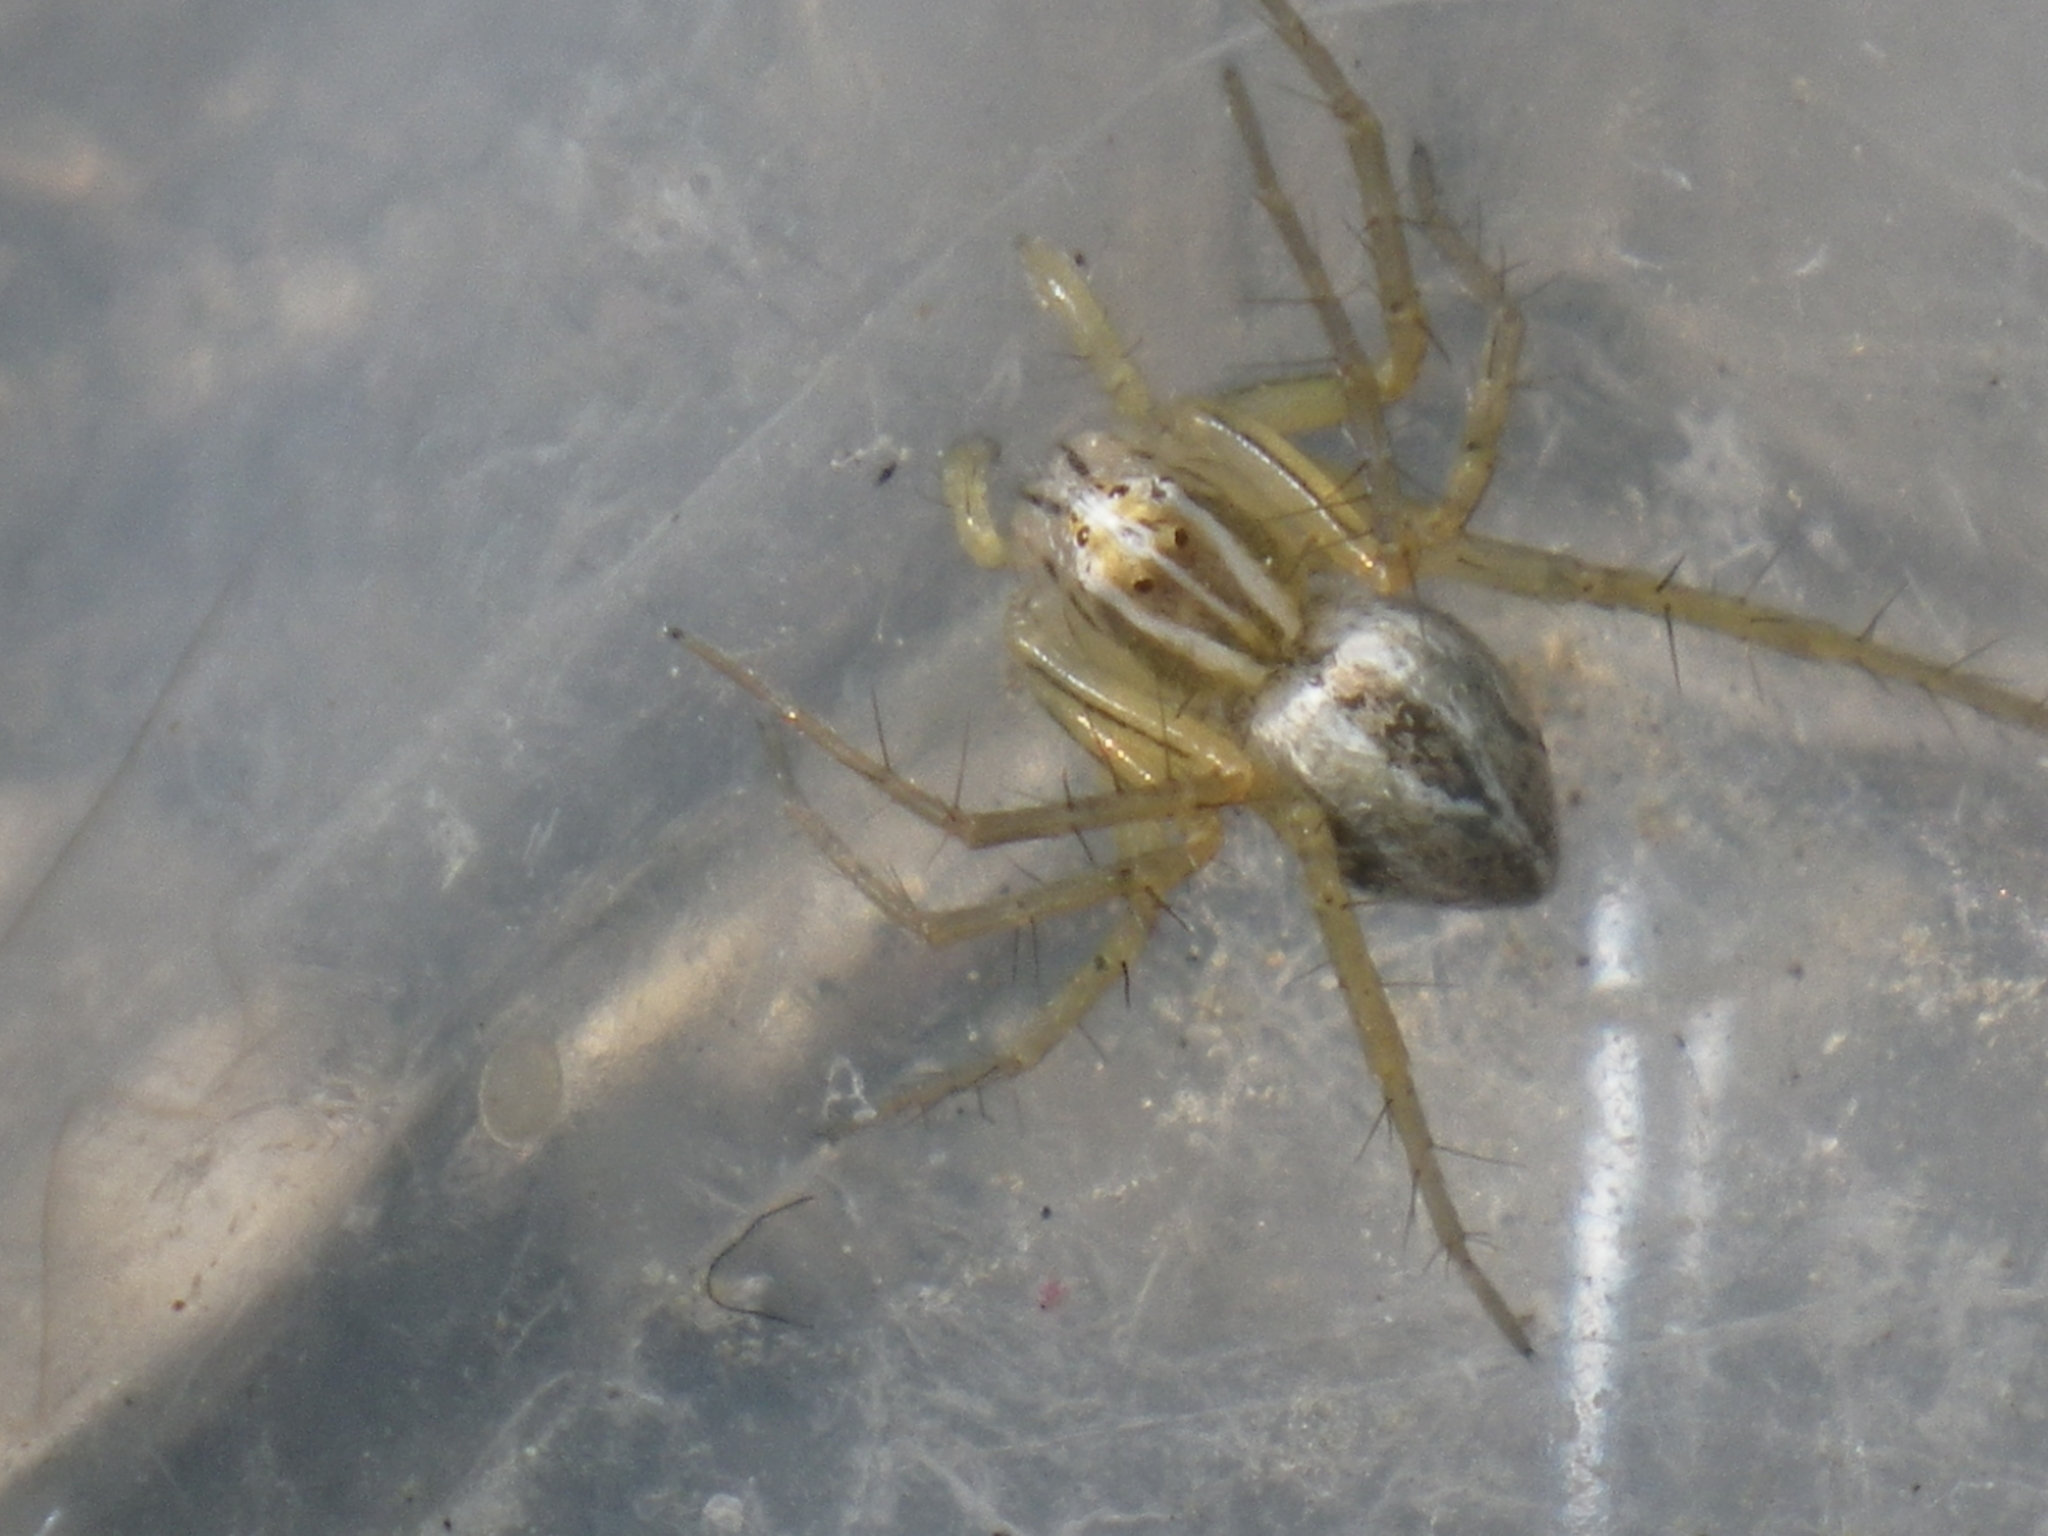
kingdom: Animalia
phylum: Arthropoda
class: Arachnida
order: Araneae
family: Oxyopidae
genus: Oxyopes
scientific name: Oxyopes salticus
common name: Lynx spiders
